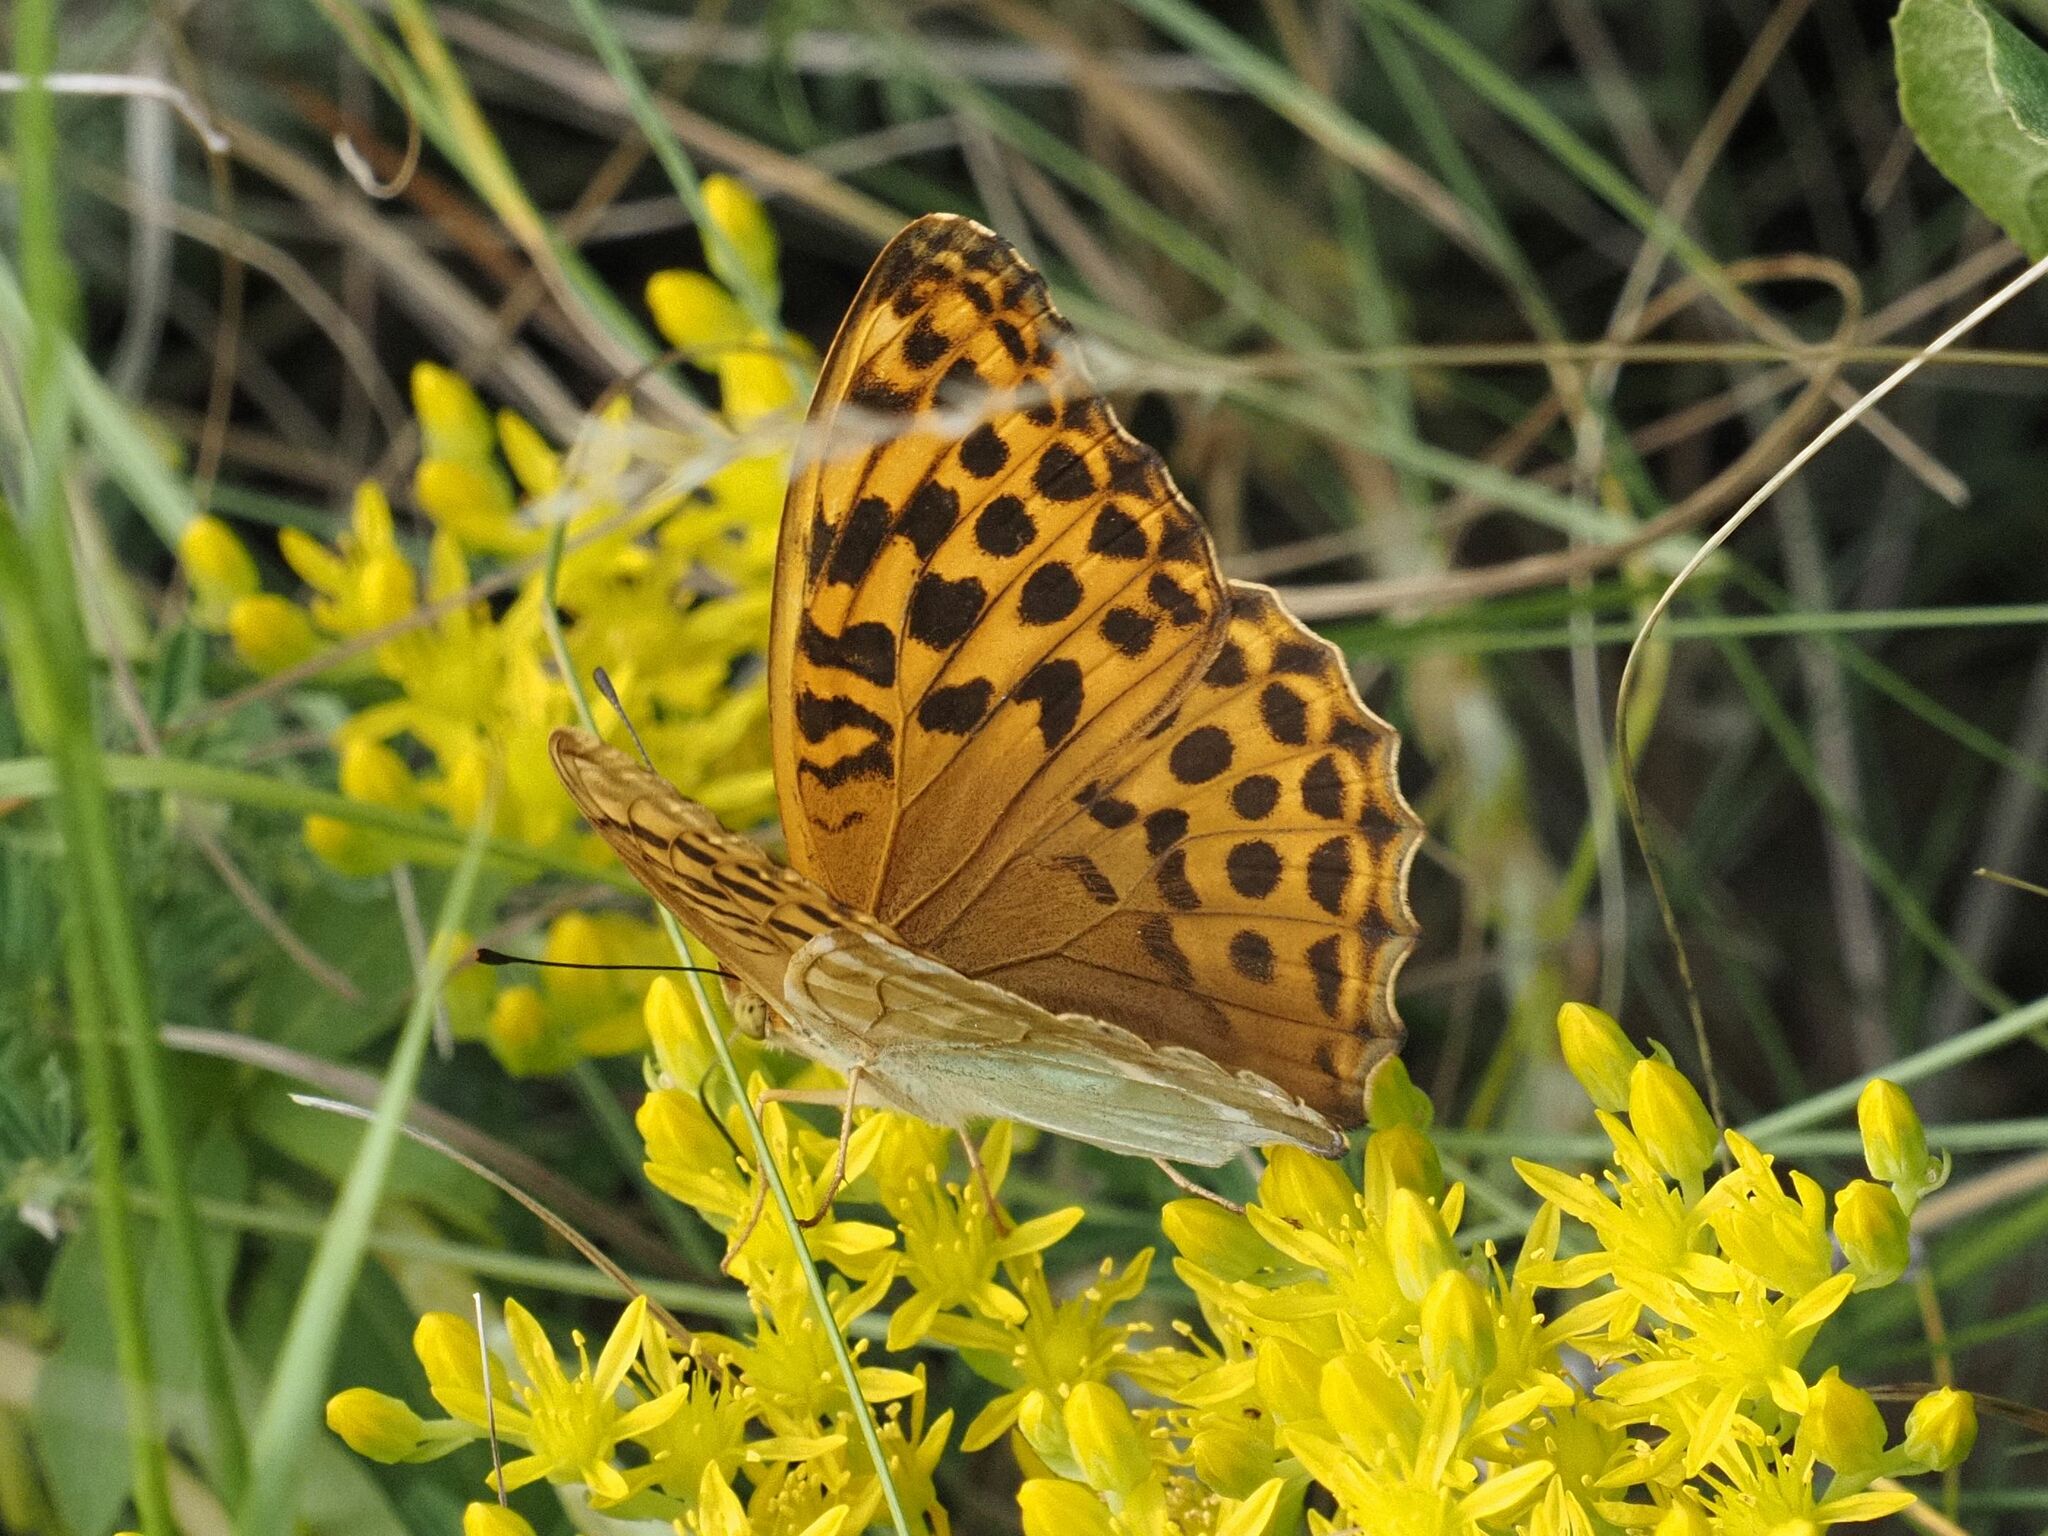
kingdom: Animalia
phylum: Arthropoda
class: Insecta
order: Lepidoptera
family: Nymphalidae
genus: Argynnis
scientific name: Argynnis paphia
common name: Silver-washed fritillary
